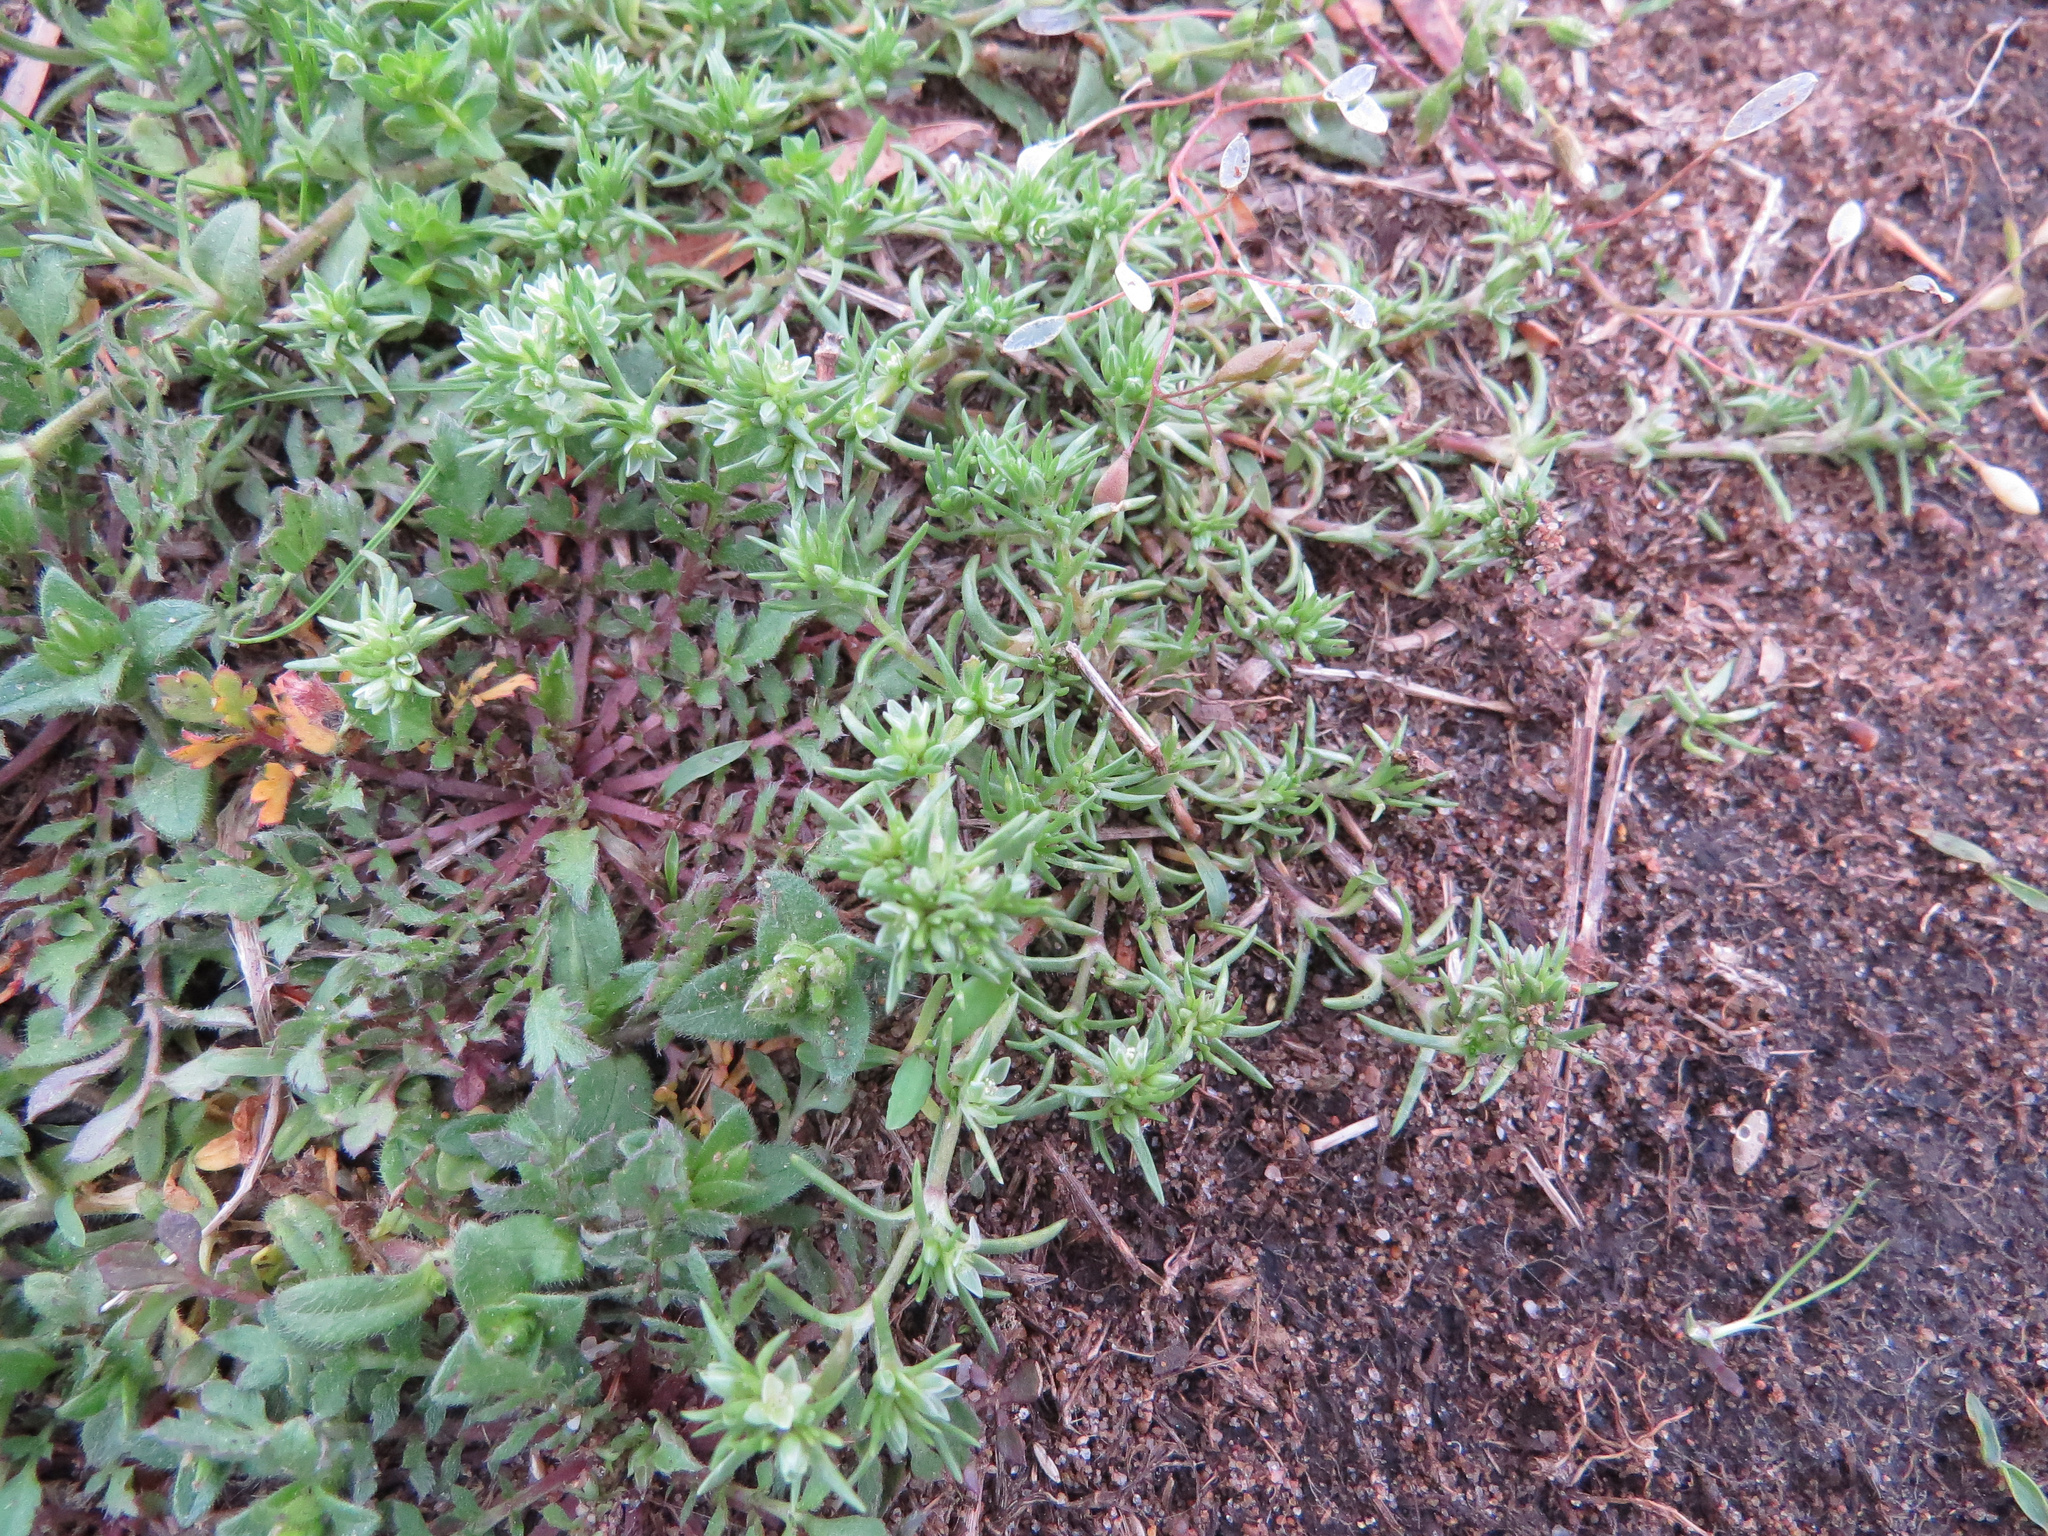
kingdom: Plantae
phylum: Tracheophyta
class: Magnoliopsida
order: Caryophyllales
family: Caryophyllaceae
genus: Scleranthus
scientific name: Scleranthus annuus
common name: Annual knawel
